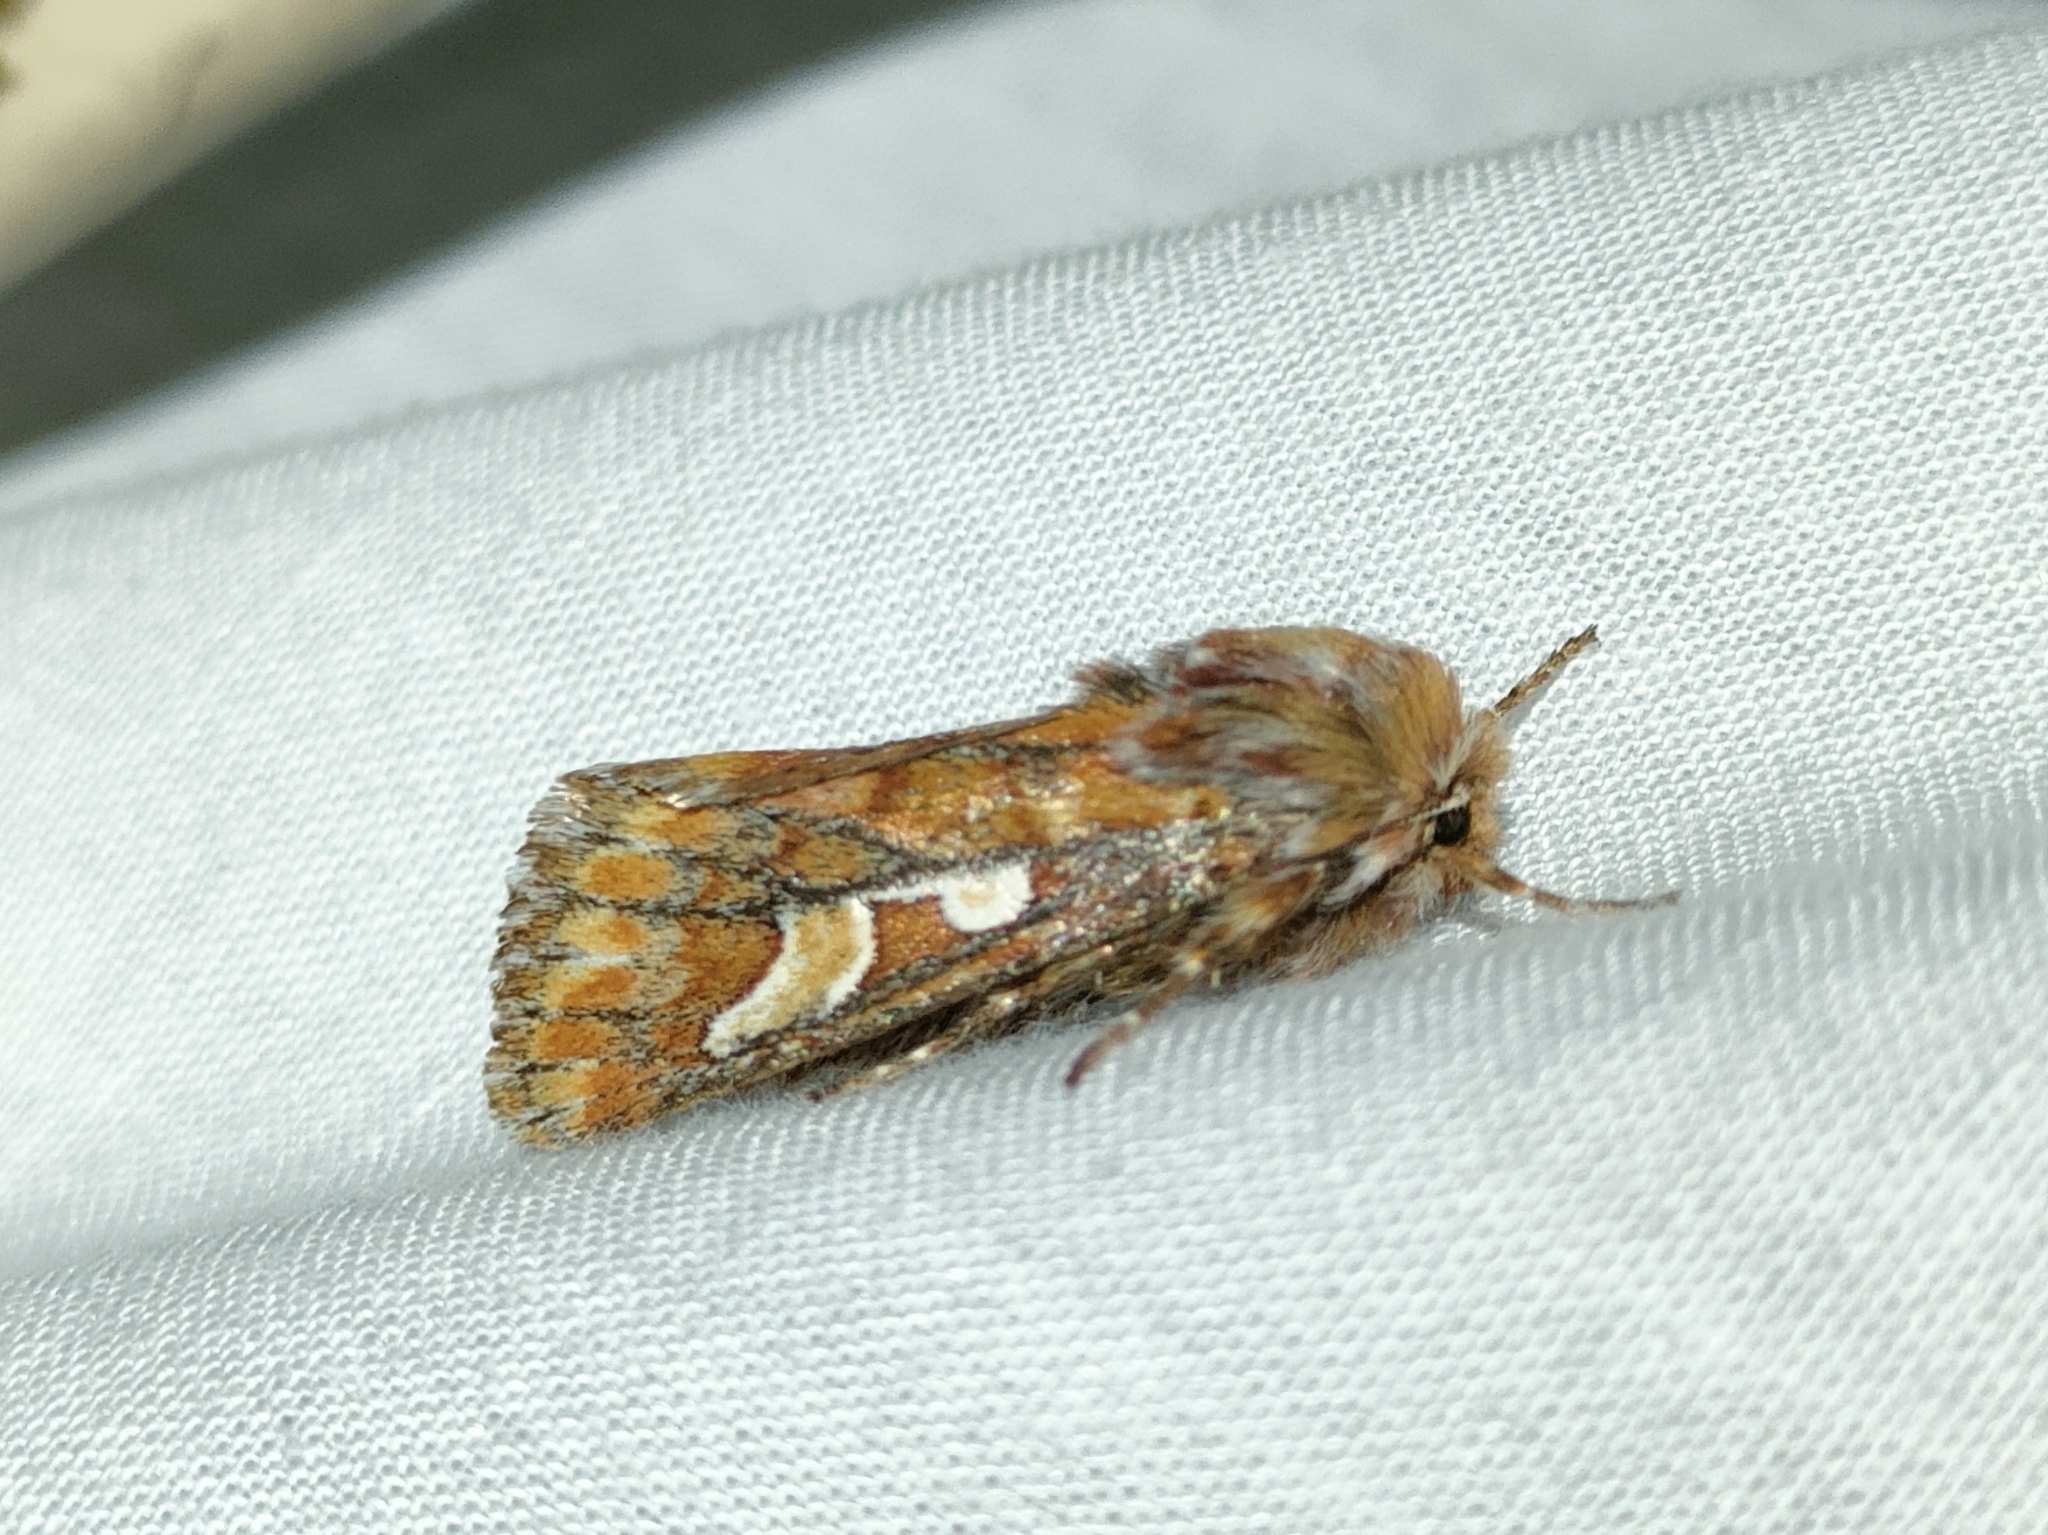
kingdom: Animalia
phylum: Arthropoda
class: Insecta
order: Lepidoptera
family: Noctuidae
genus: Panolis
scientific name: Panolis flammea
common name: Pine beauty
